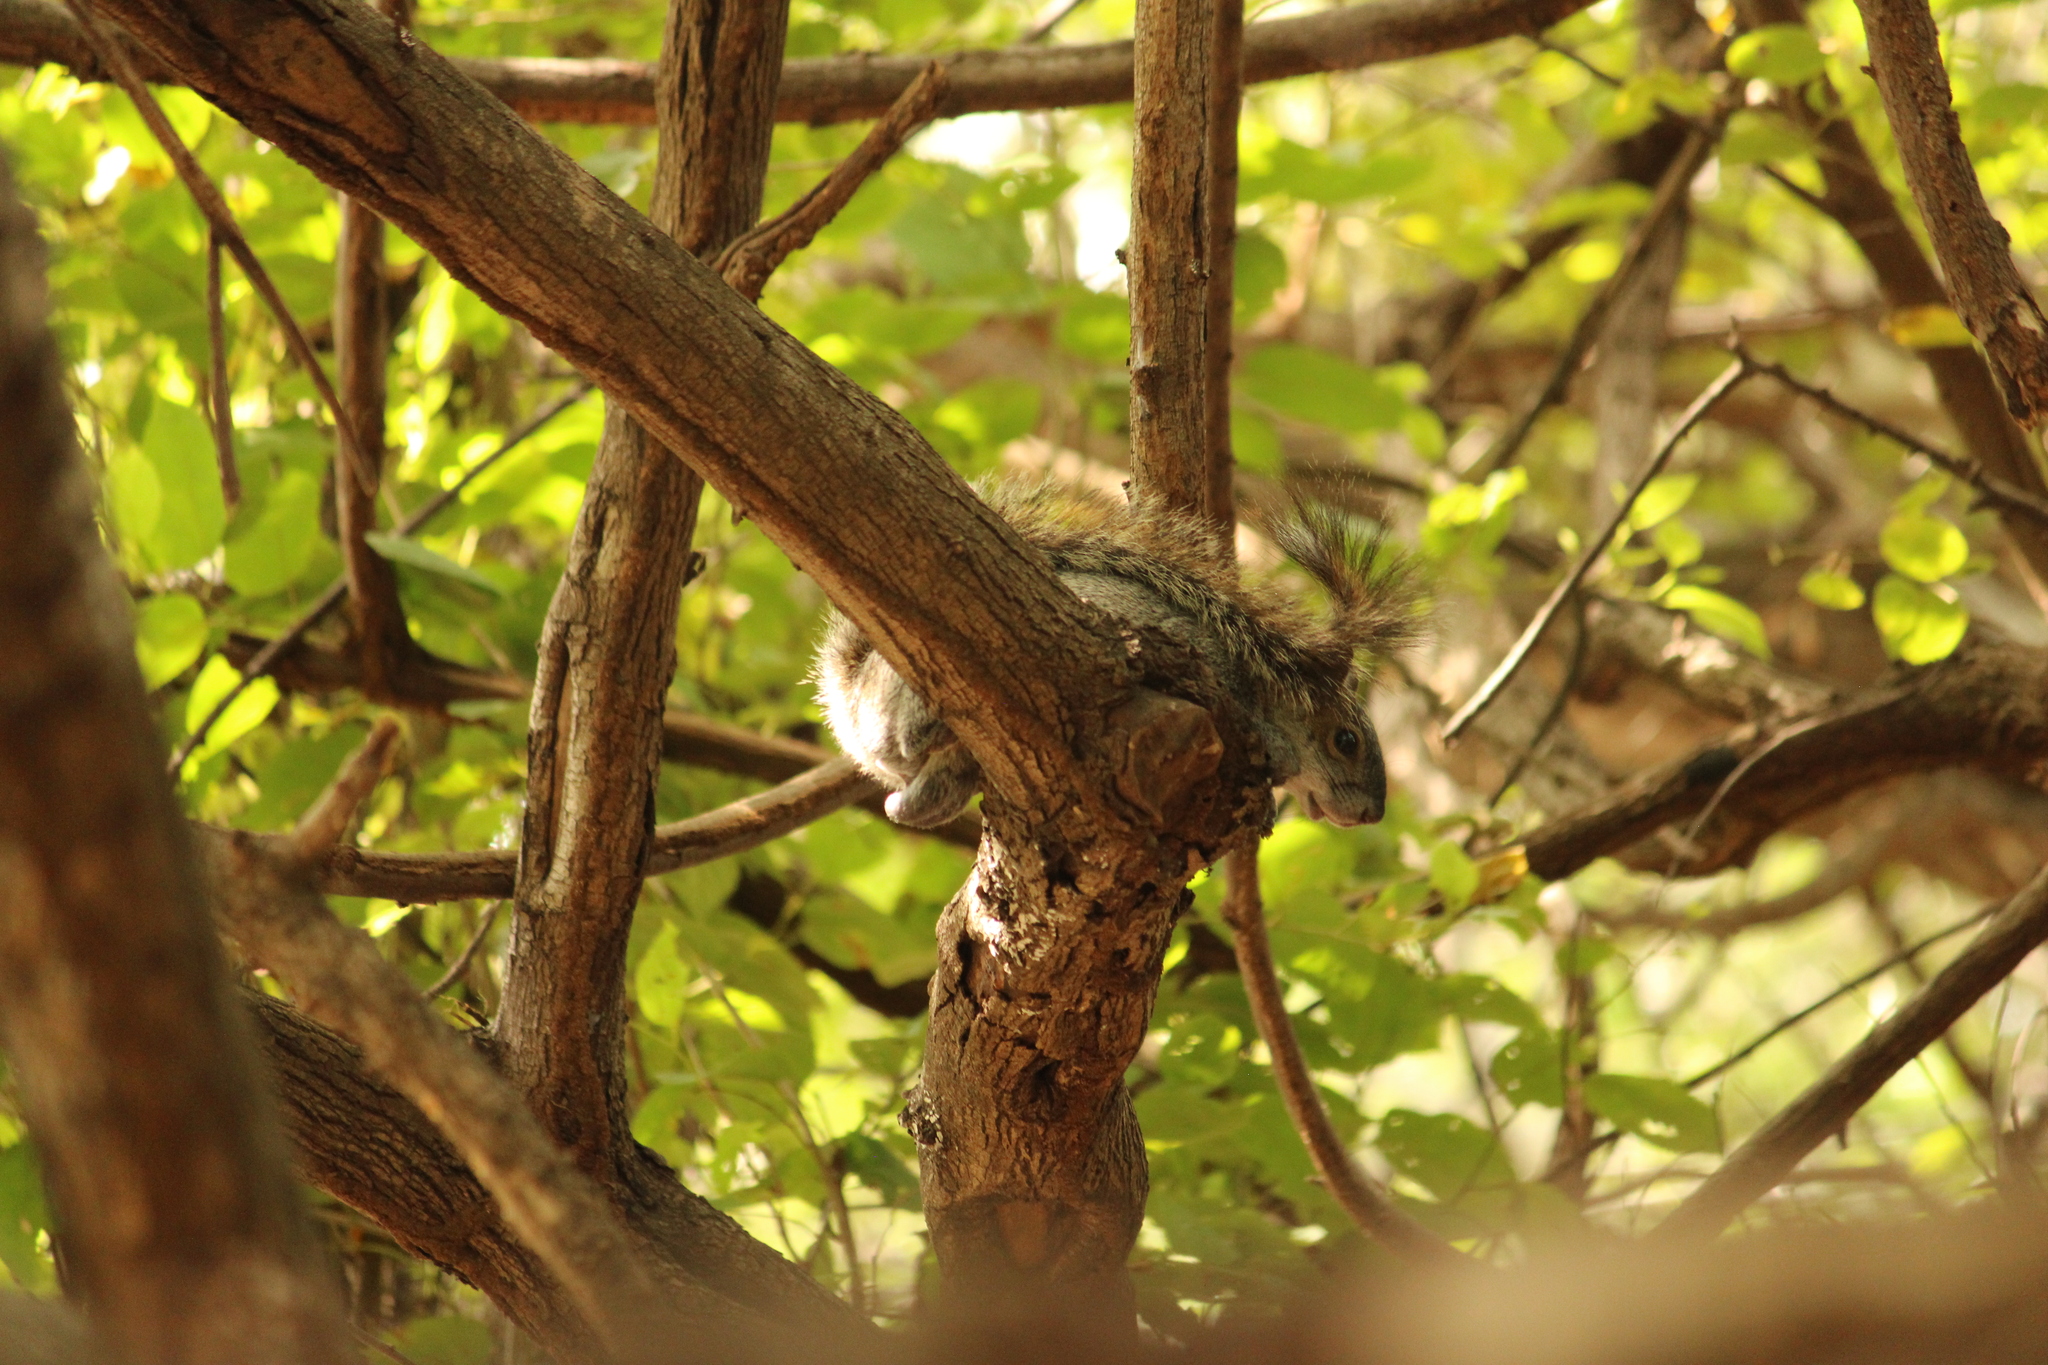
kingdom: Animalia
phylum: Chordata
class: Mammalia
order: Rodentia
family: Sciuridae
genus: Sciurus
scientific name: Sciurus aureogaster
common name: Red-bellied squirrel
